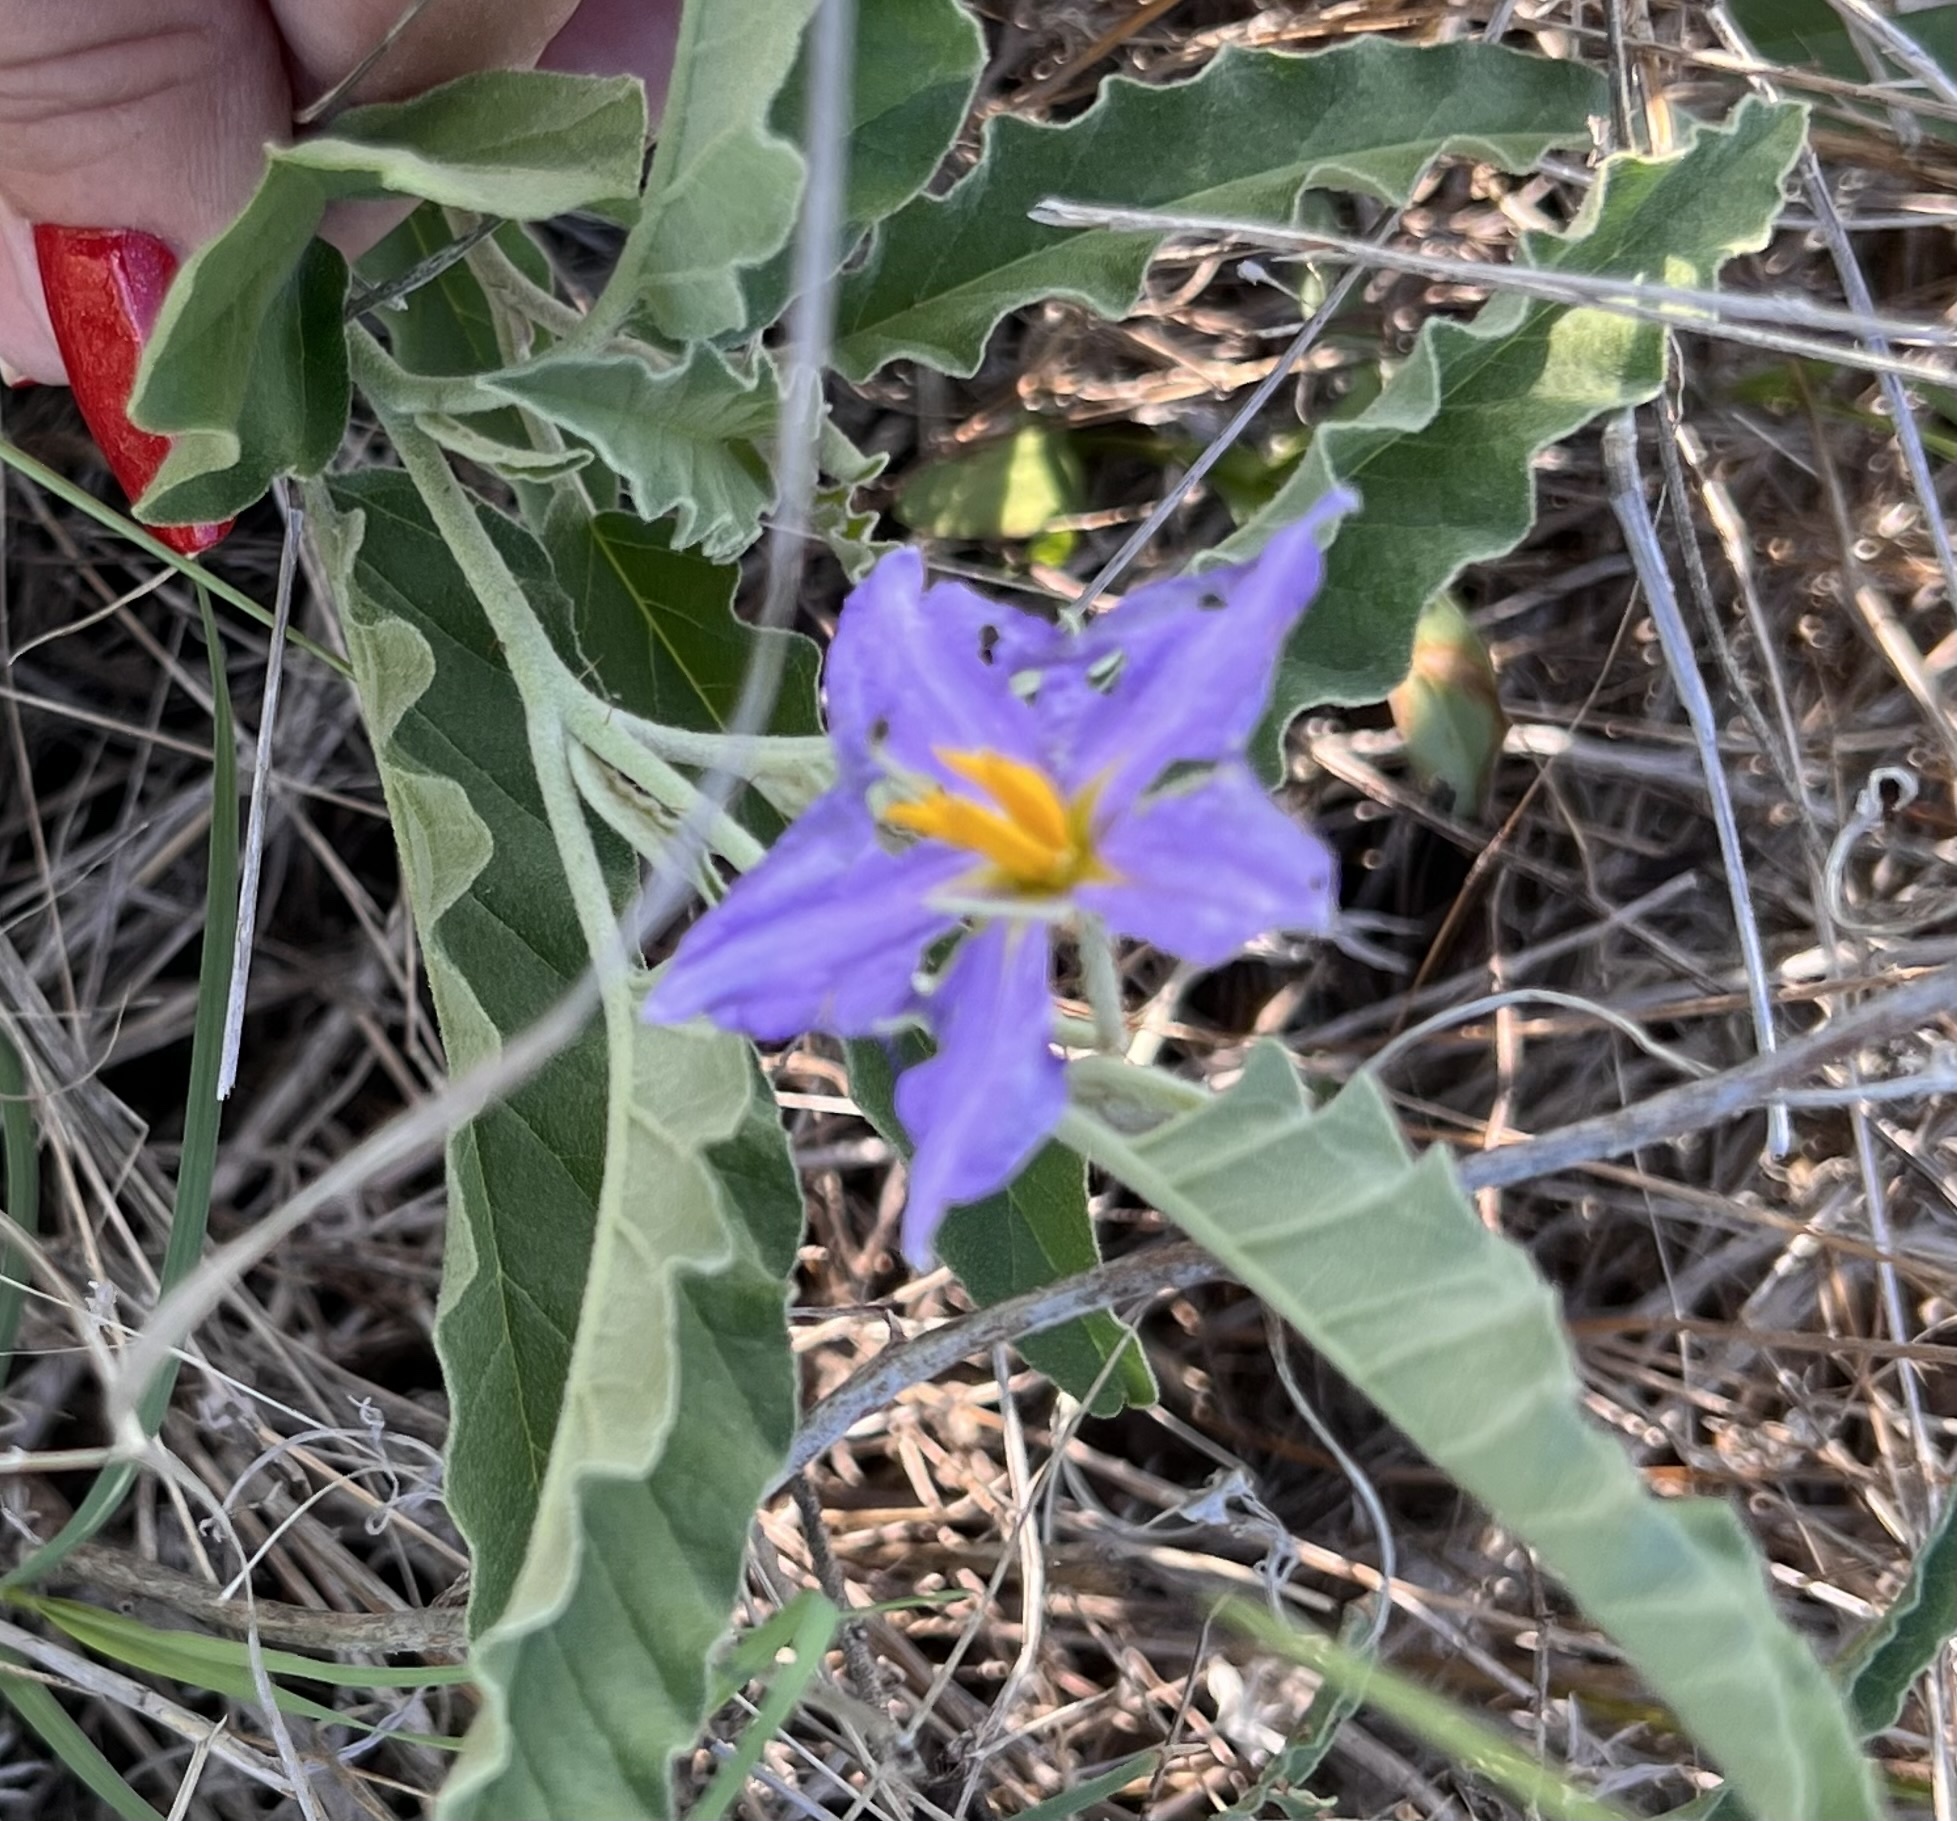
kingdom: Plantae
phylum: Tracheophyta
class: Magnoliopsida
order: Solanales
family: Solanaceae
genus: Solanum
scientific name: Solanum elaeagnifolium
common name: Silverleaf nightshade
